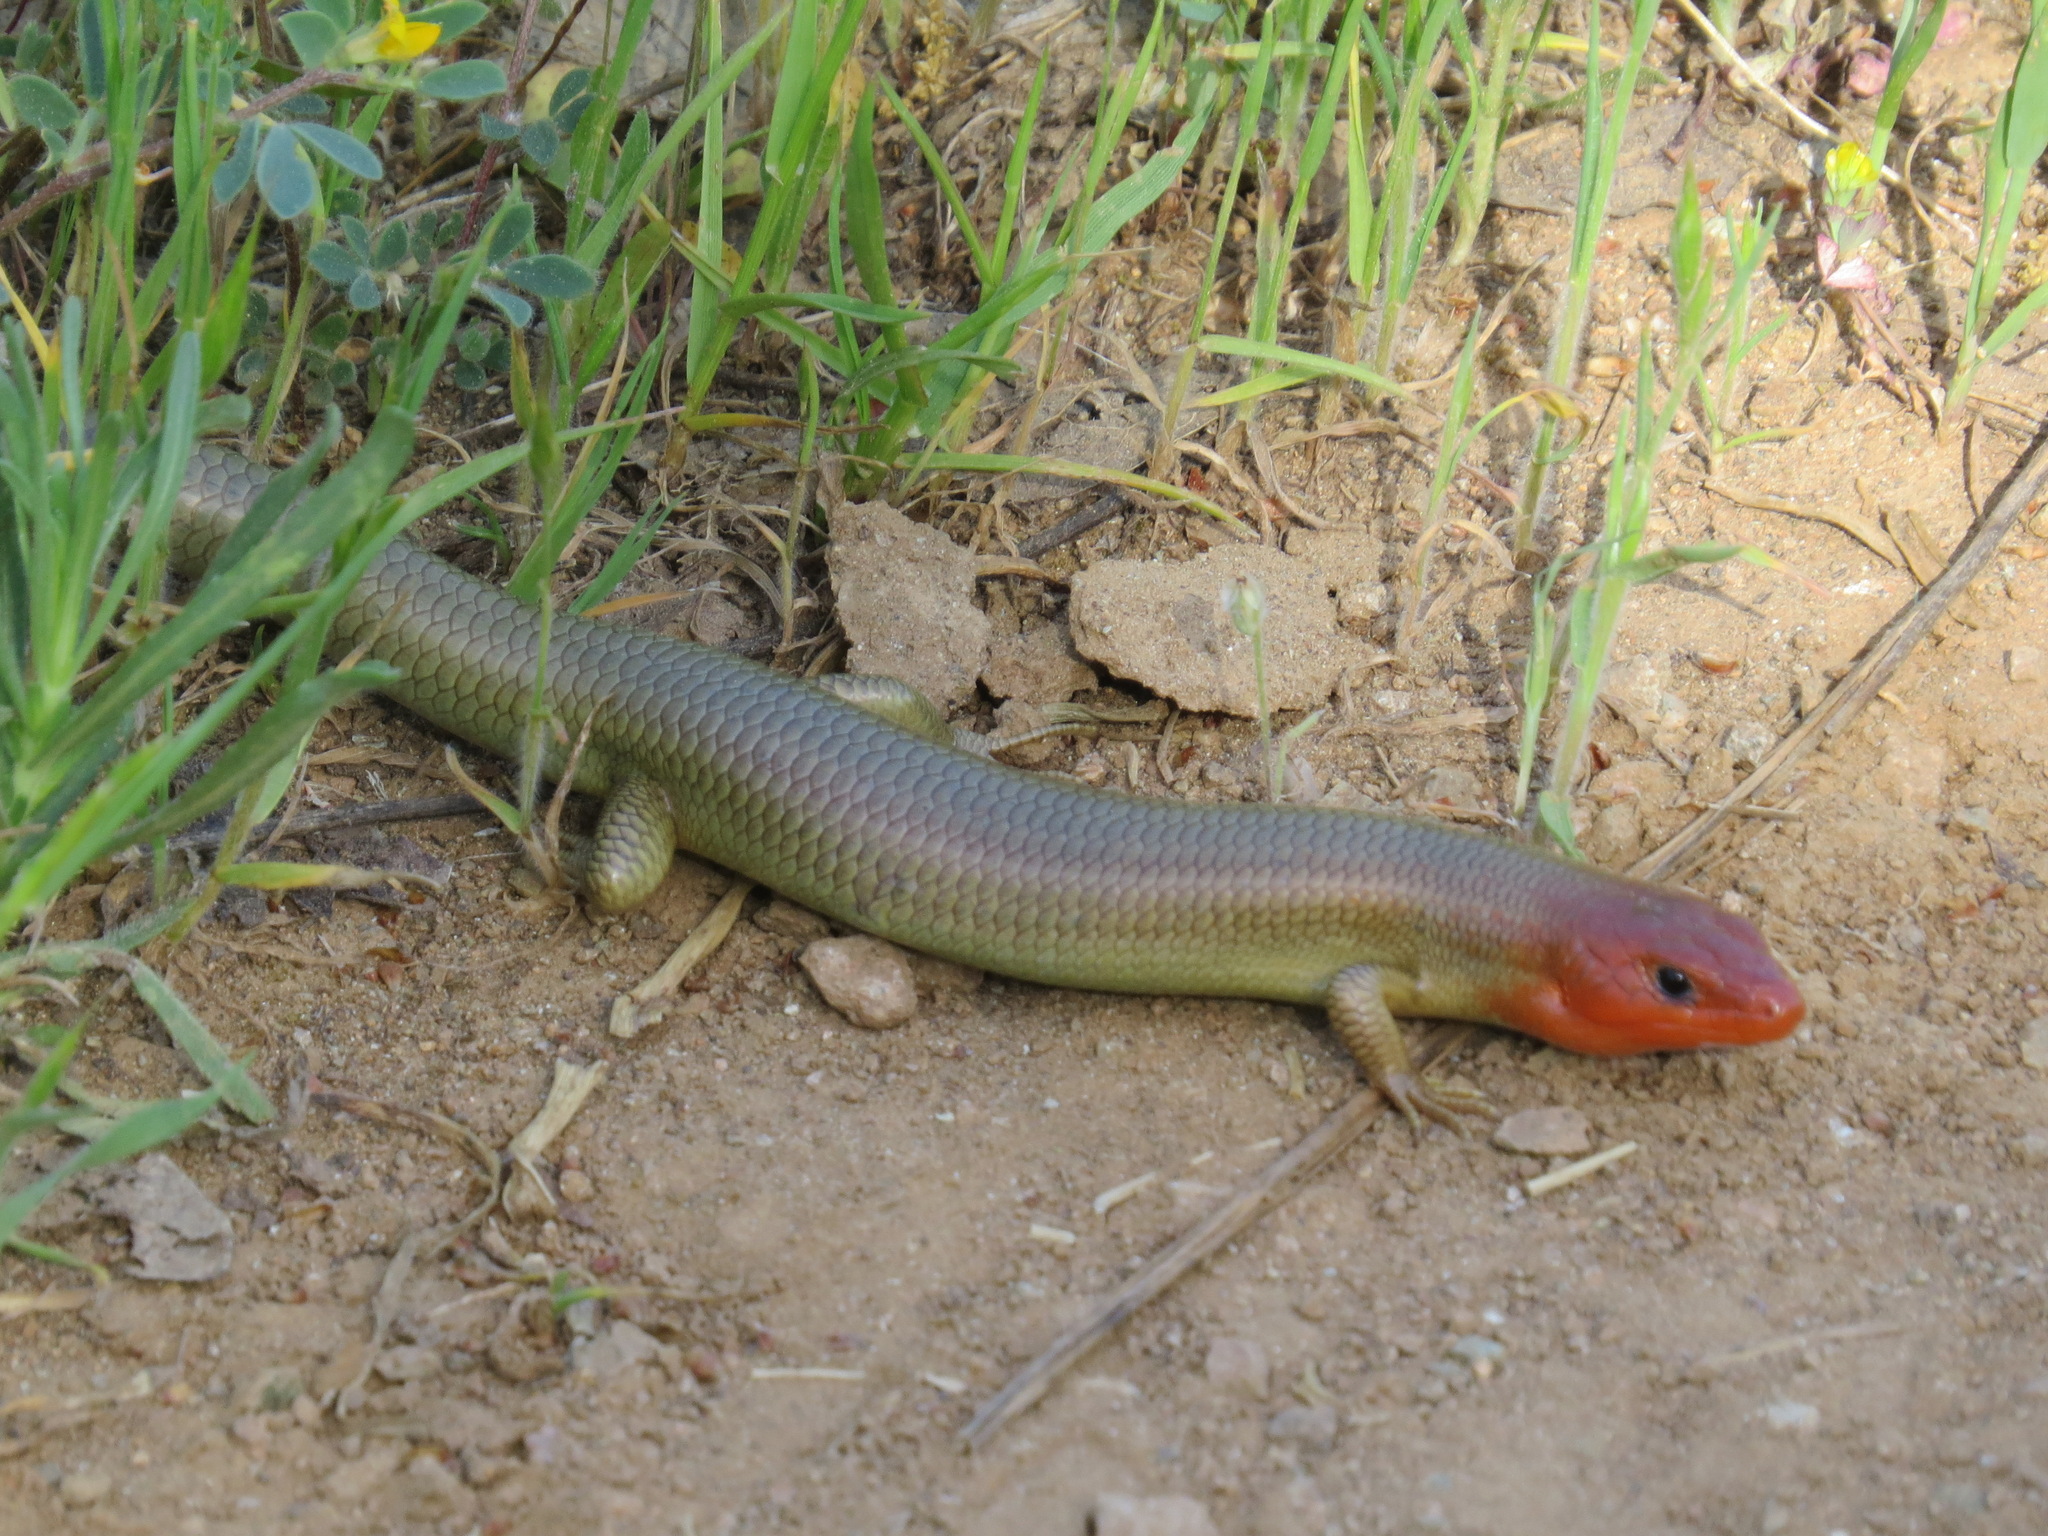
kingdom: Animalia
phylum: Chordata
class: Squamata
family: Scincidae
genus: Plestiodon
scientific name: Plestiodon gilberti
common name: Gilbert's skink
